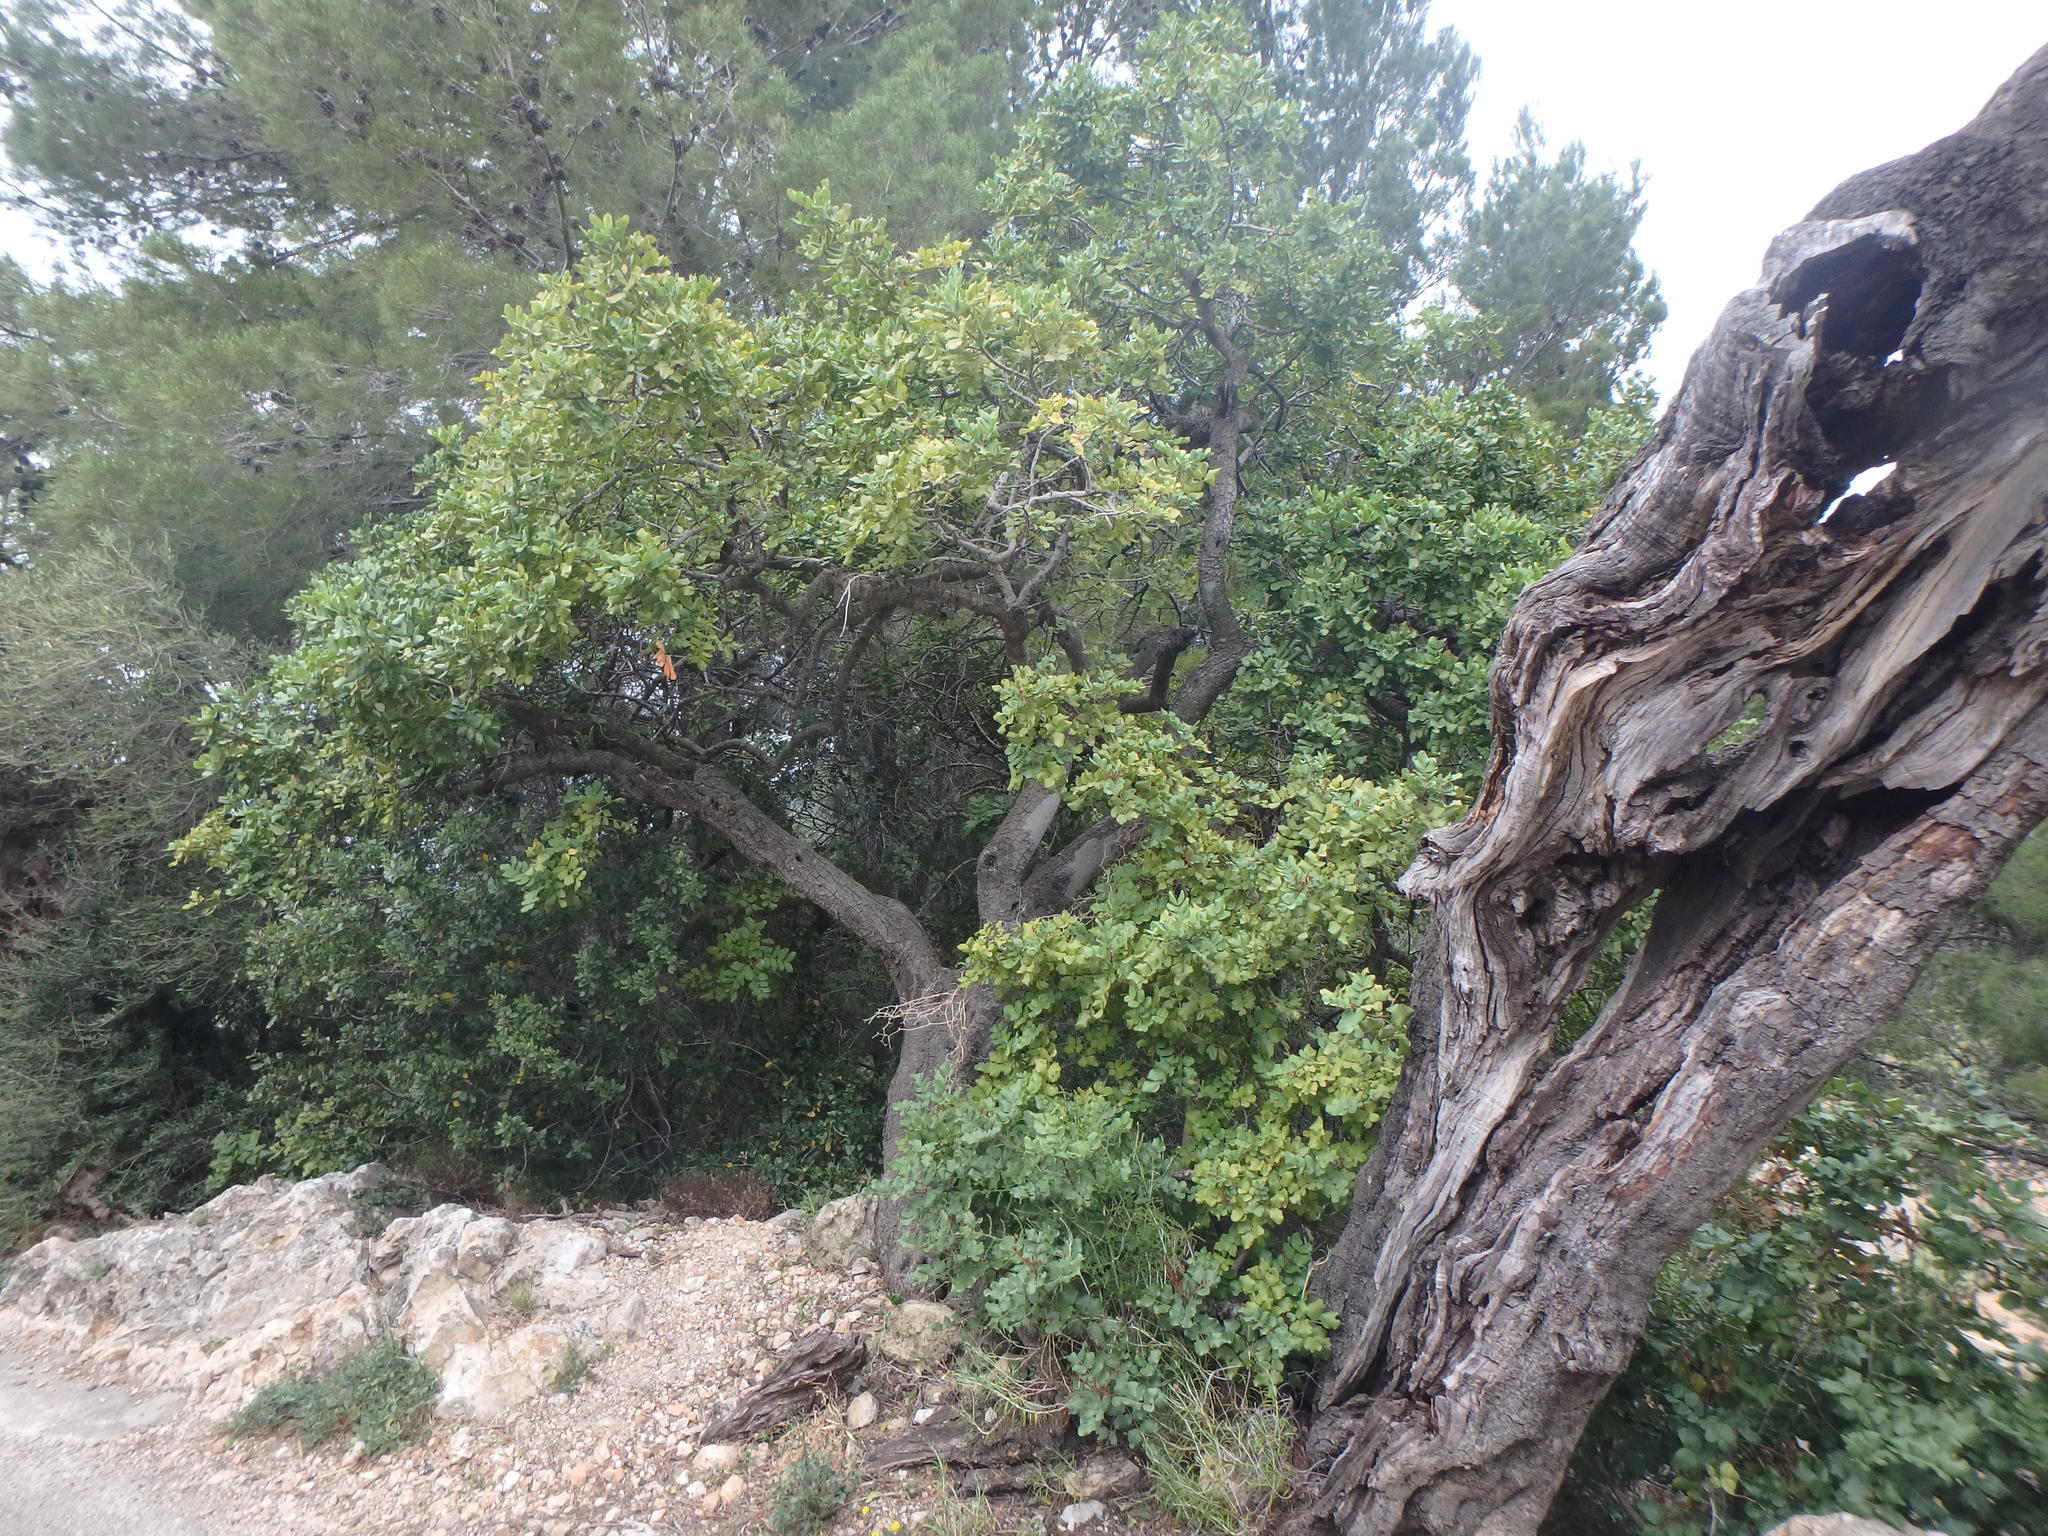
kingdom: Plantae
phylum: Tracheophyta
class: Magnoliopsida
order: Fabales
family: Fabaceae
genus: Ceratonia
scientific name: Ceratonia siliqua
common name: Carob
